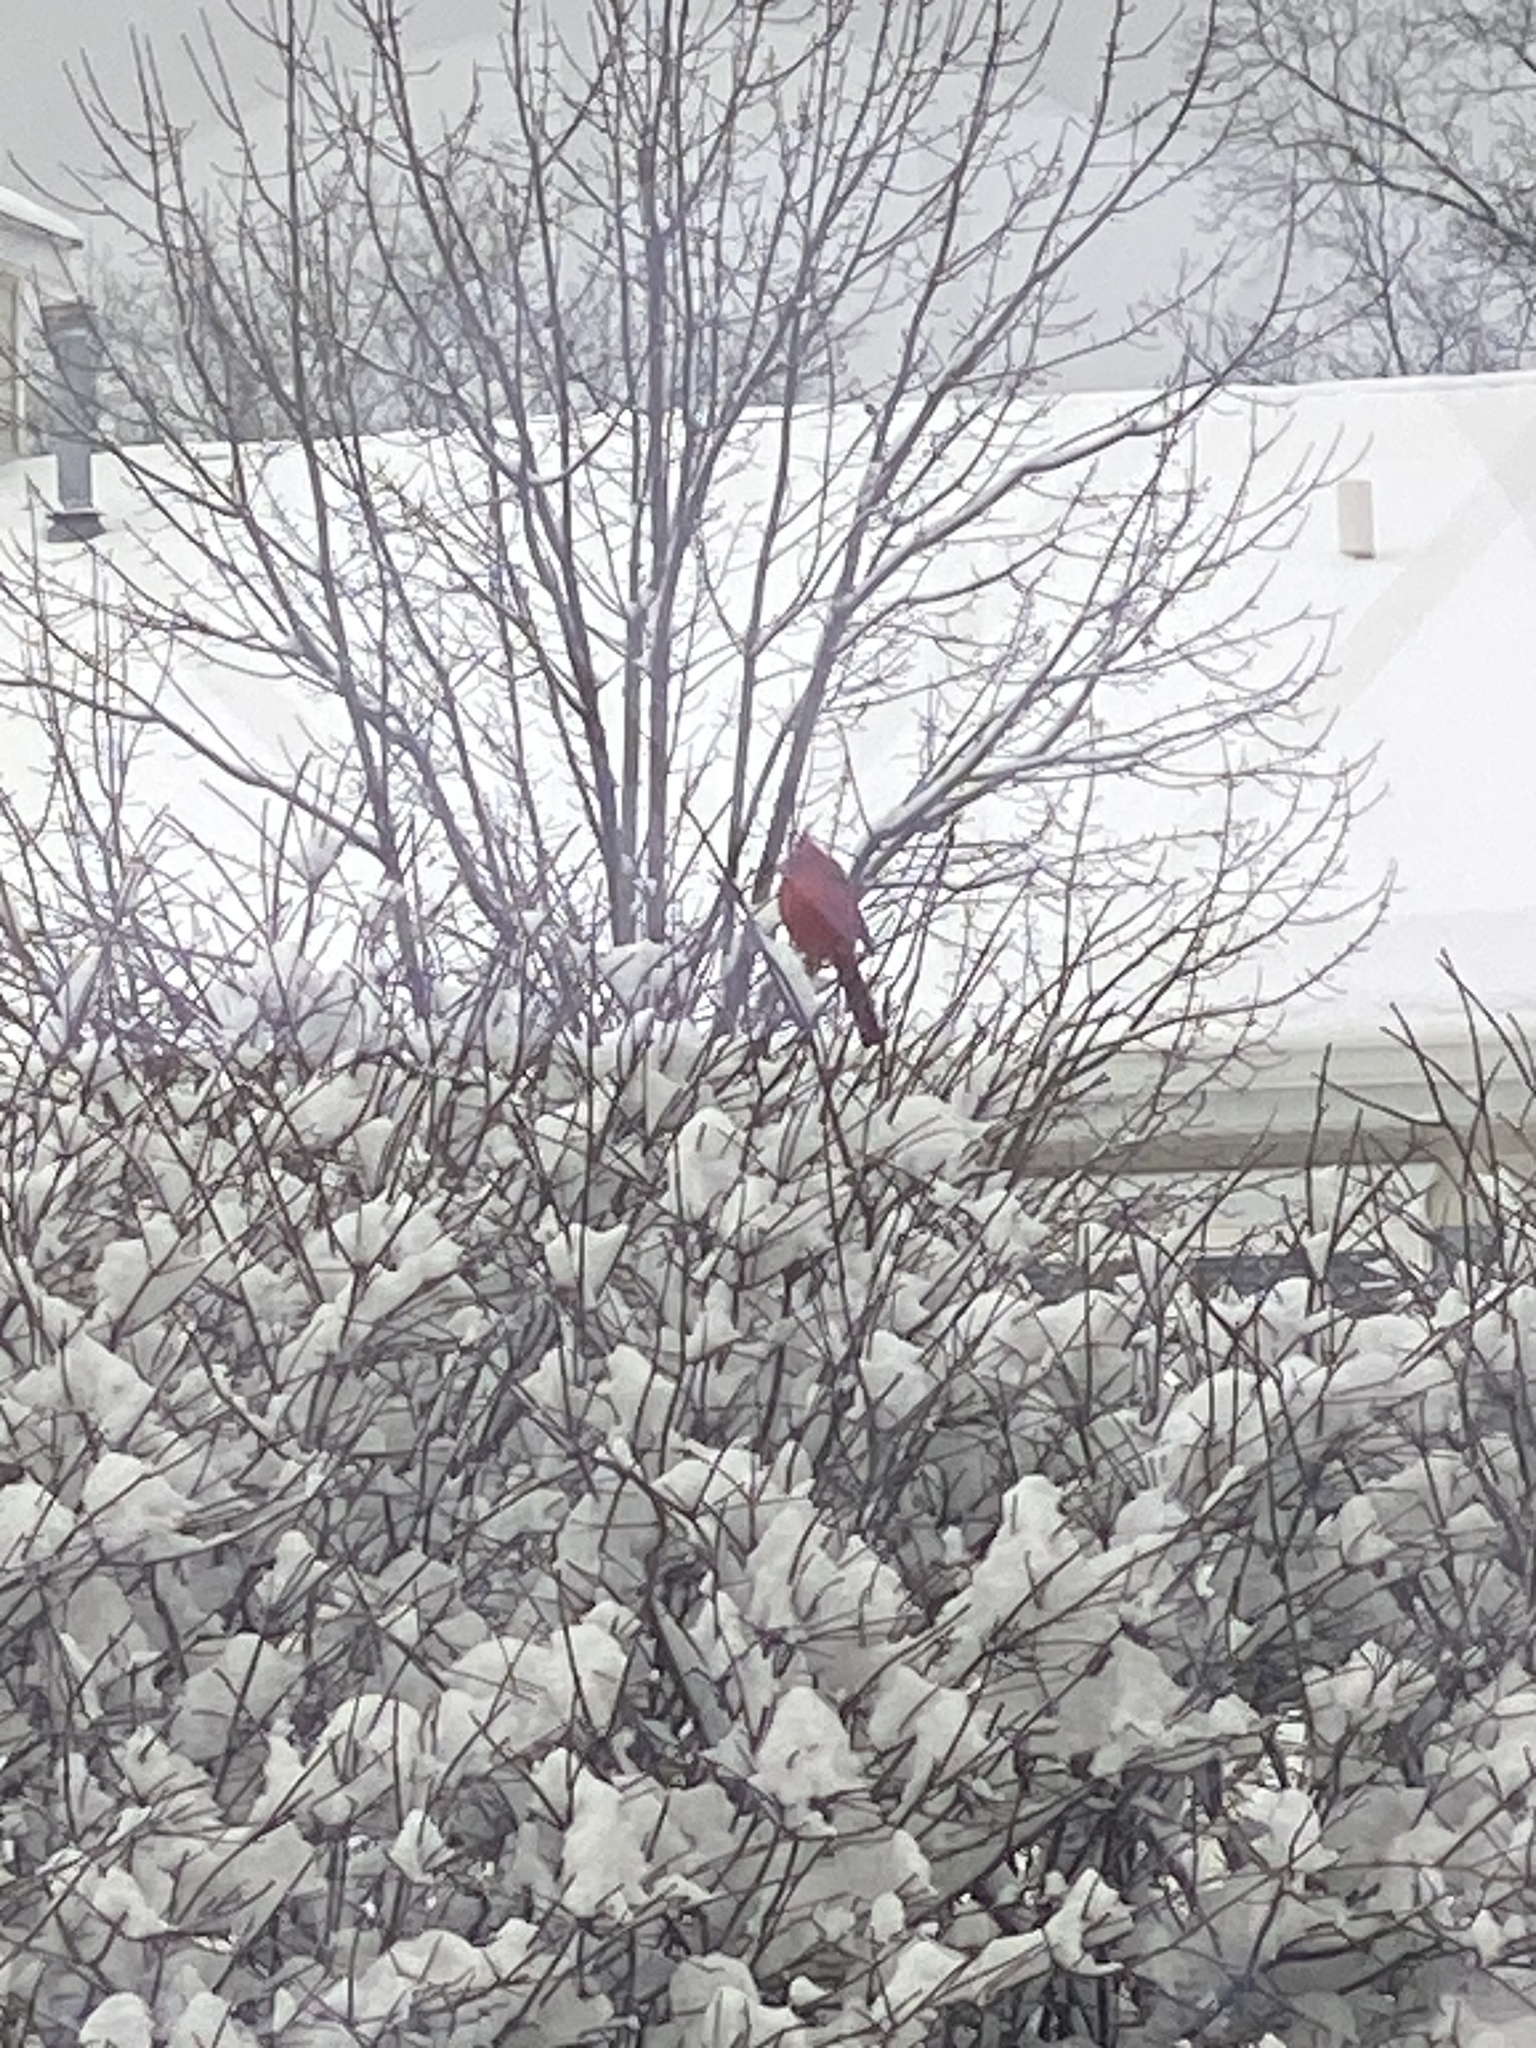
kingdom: Animalia
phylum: Chordata
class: Aves
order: Passeriformes
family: Cardinalidae
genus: Cardinalis
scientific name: Cardinalis cardinalis
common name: Northern cardinal
